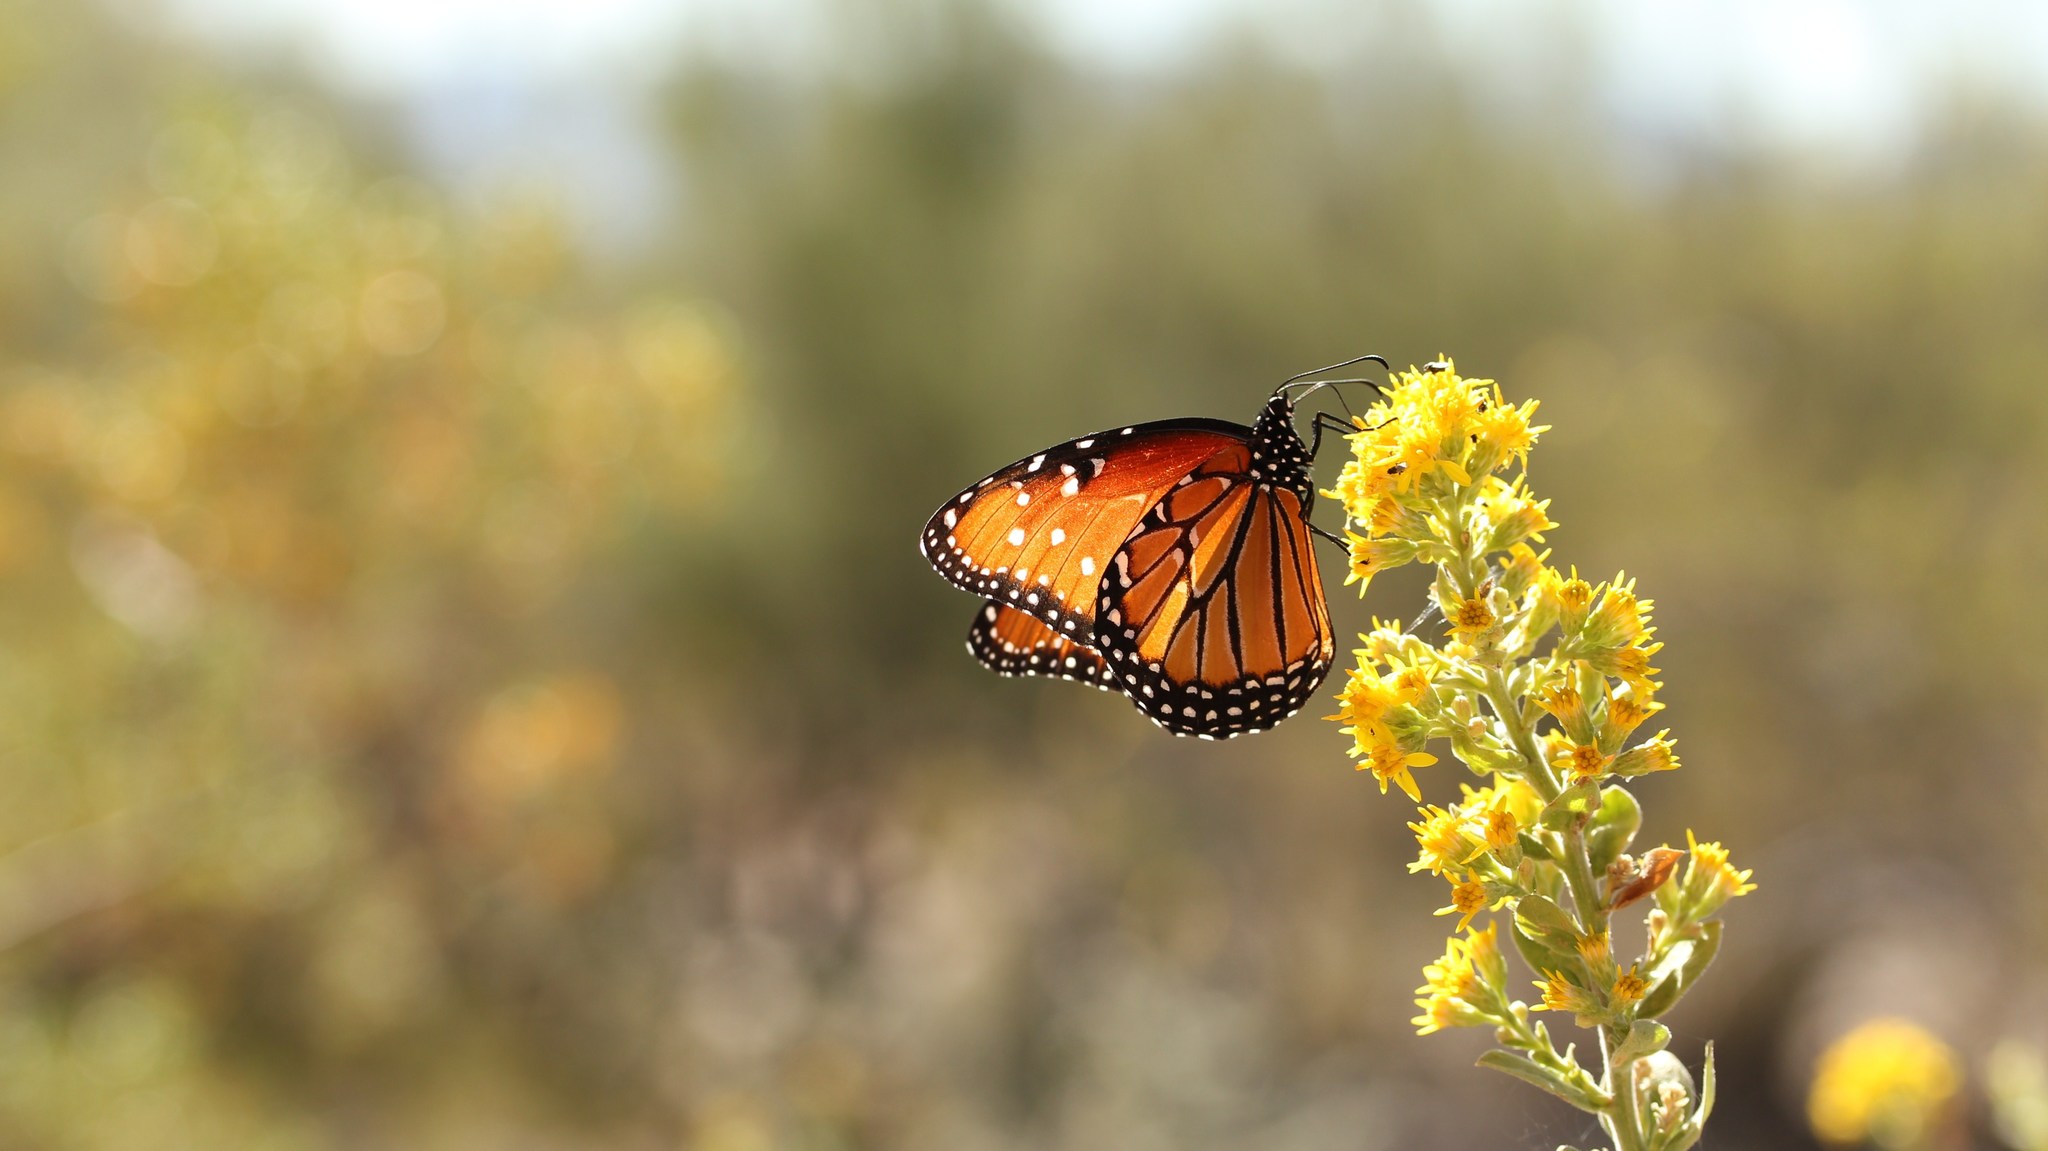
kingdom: Animalia
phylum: Arthropoda
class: Insecta
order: Lepidoptera
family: Nymphalidae
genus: Danaus
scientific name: Danaus gilippus
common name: Queen
